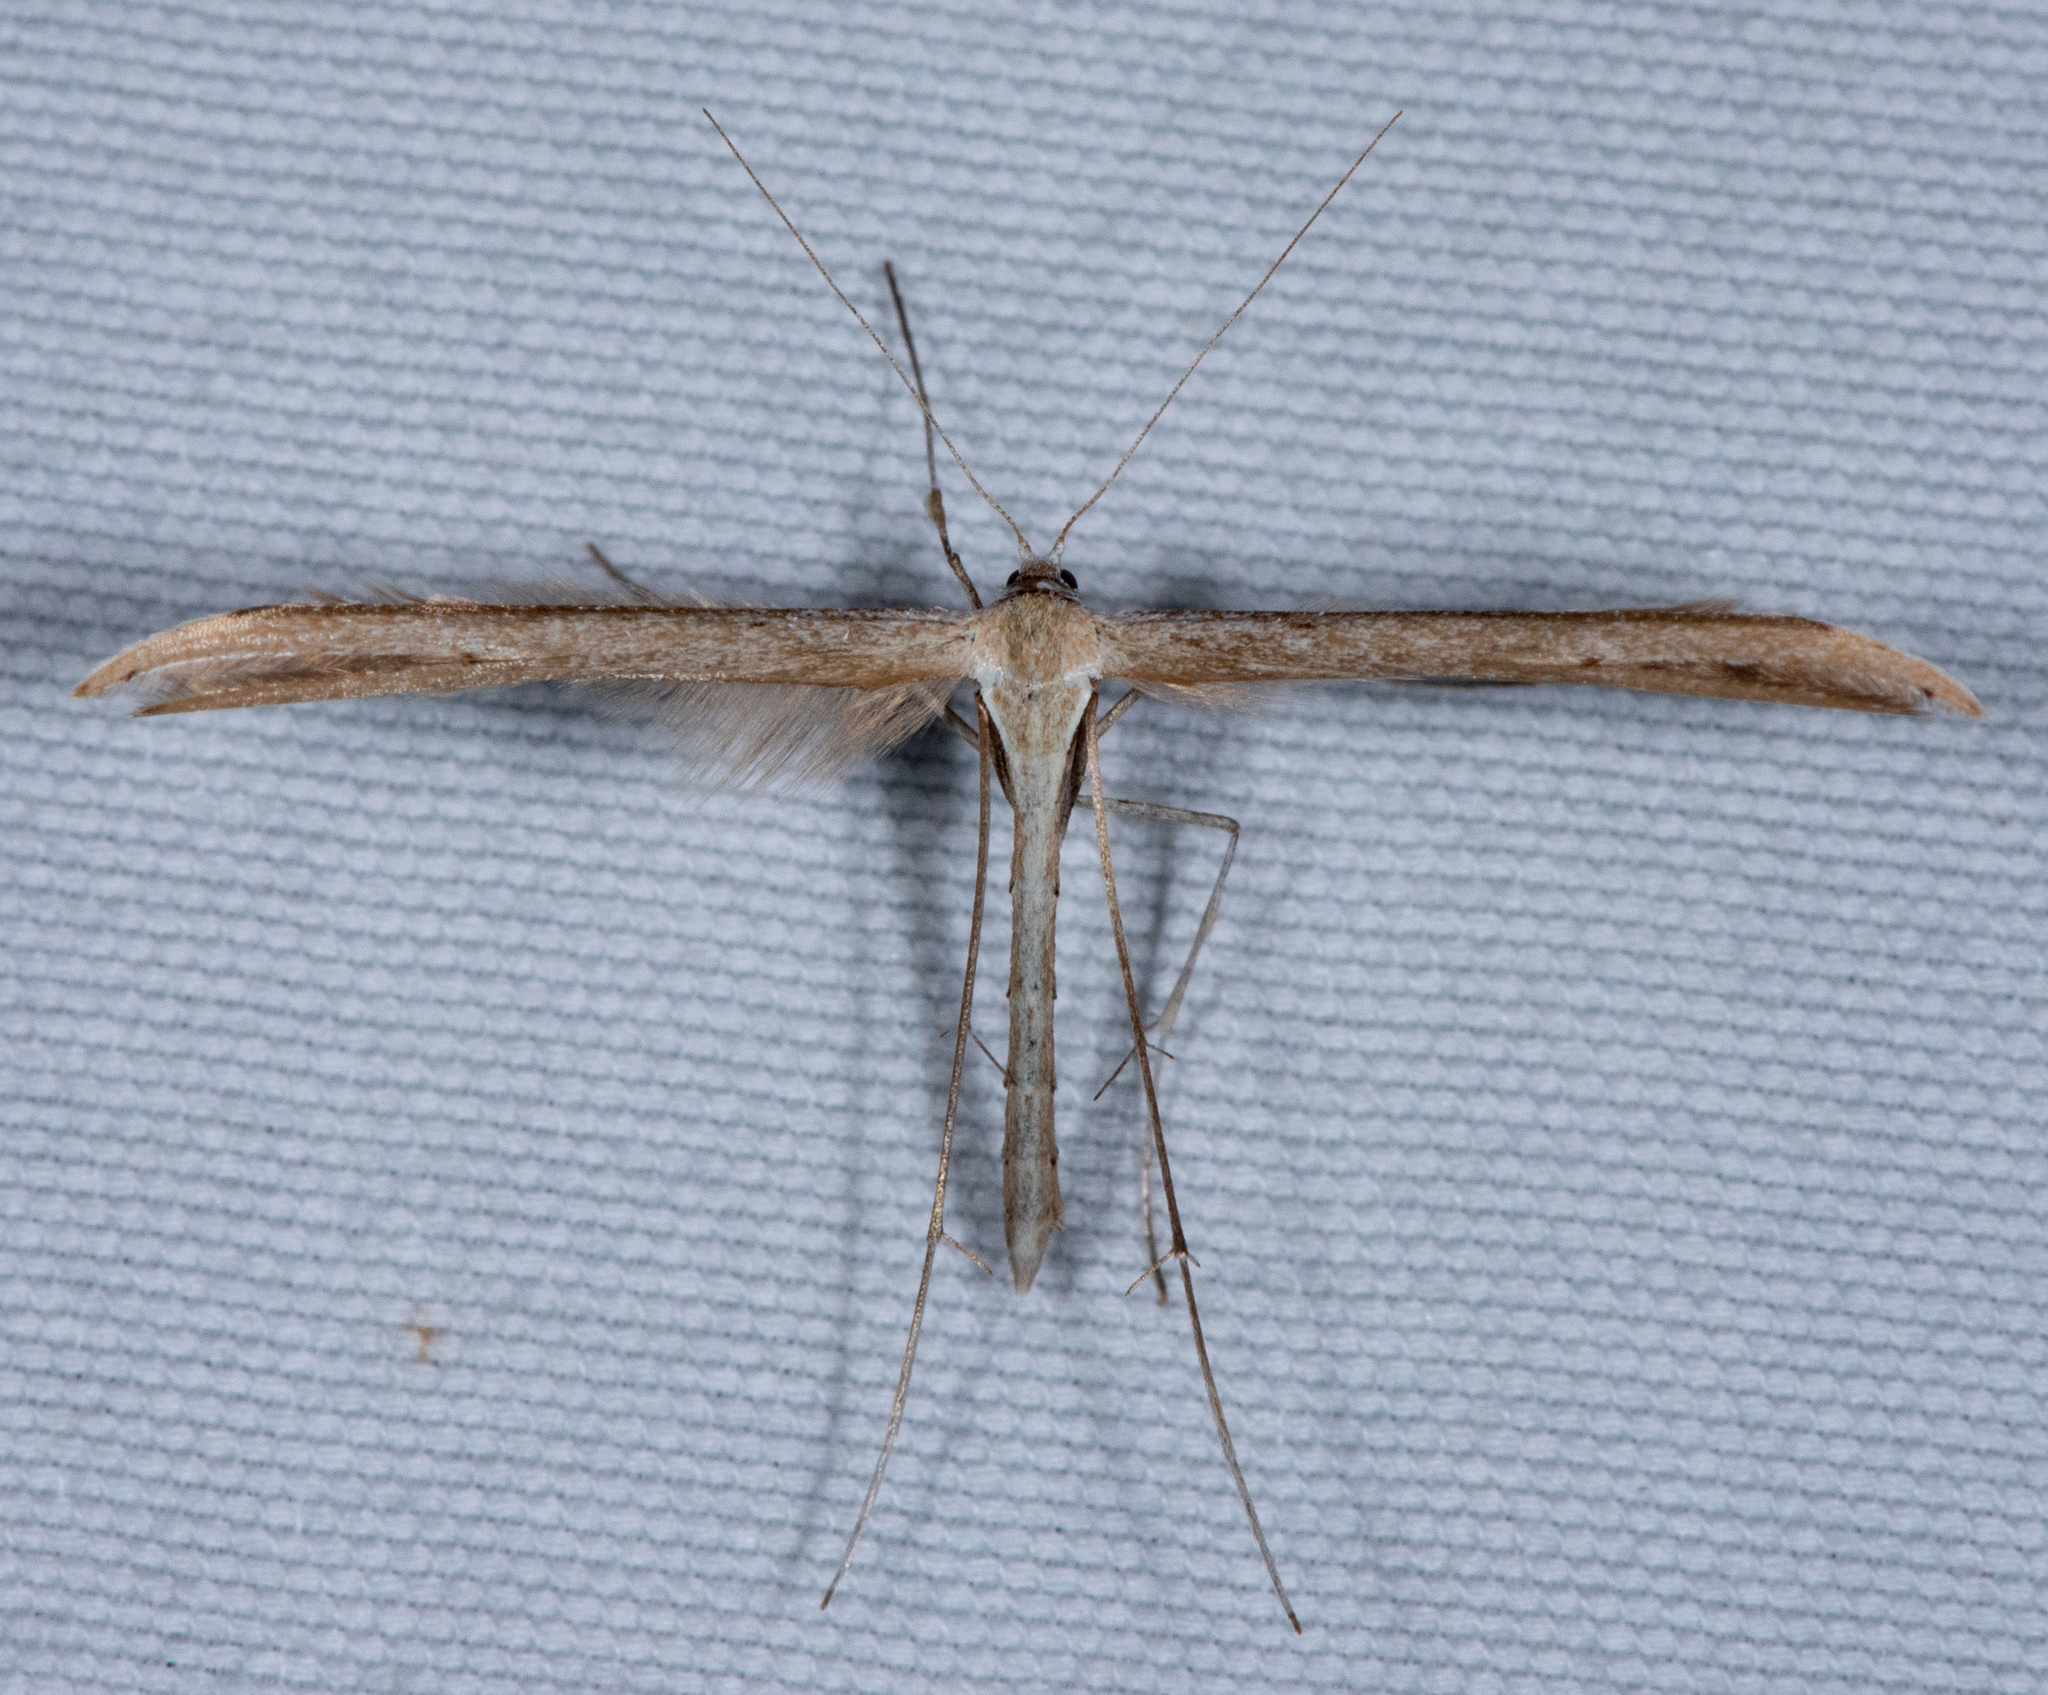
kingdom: Animalia
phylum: Arthropoda
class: Insecta
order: Lepidoptera
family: Pterophoridae
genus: Emmelina
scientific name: Emmelina monodactyla
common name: Common plume
